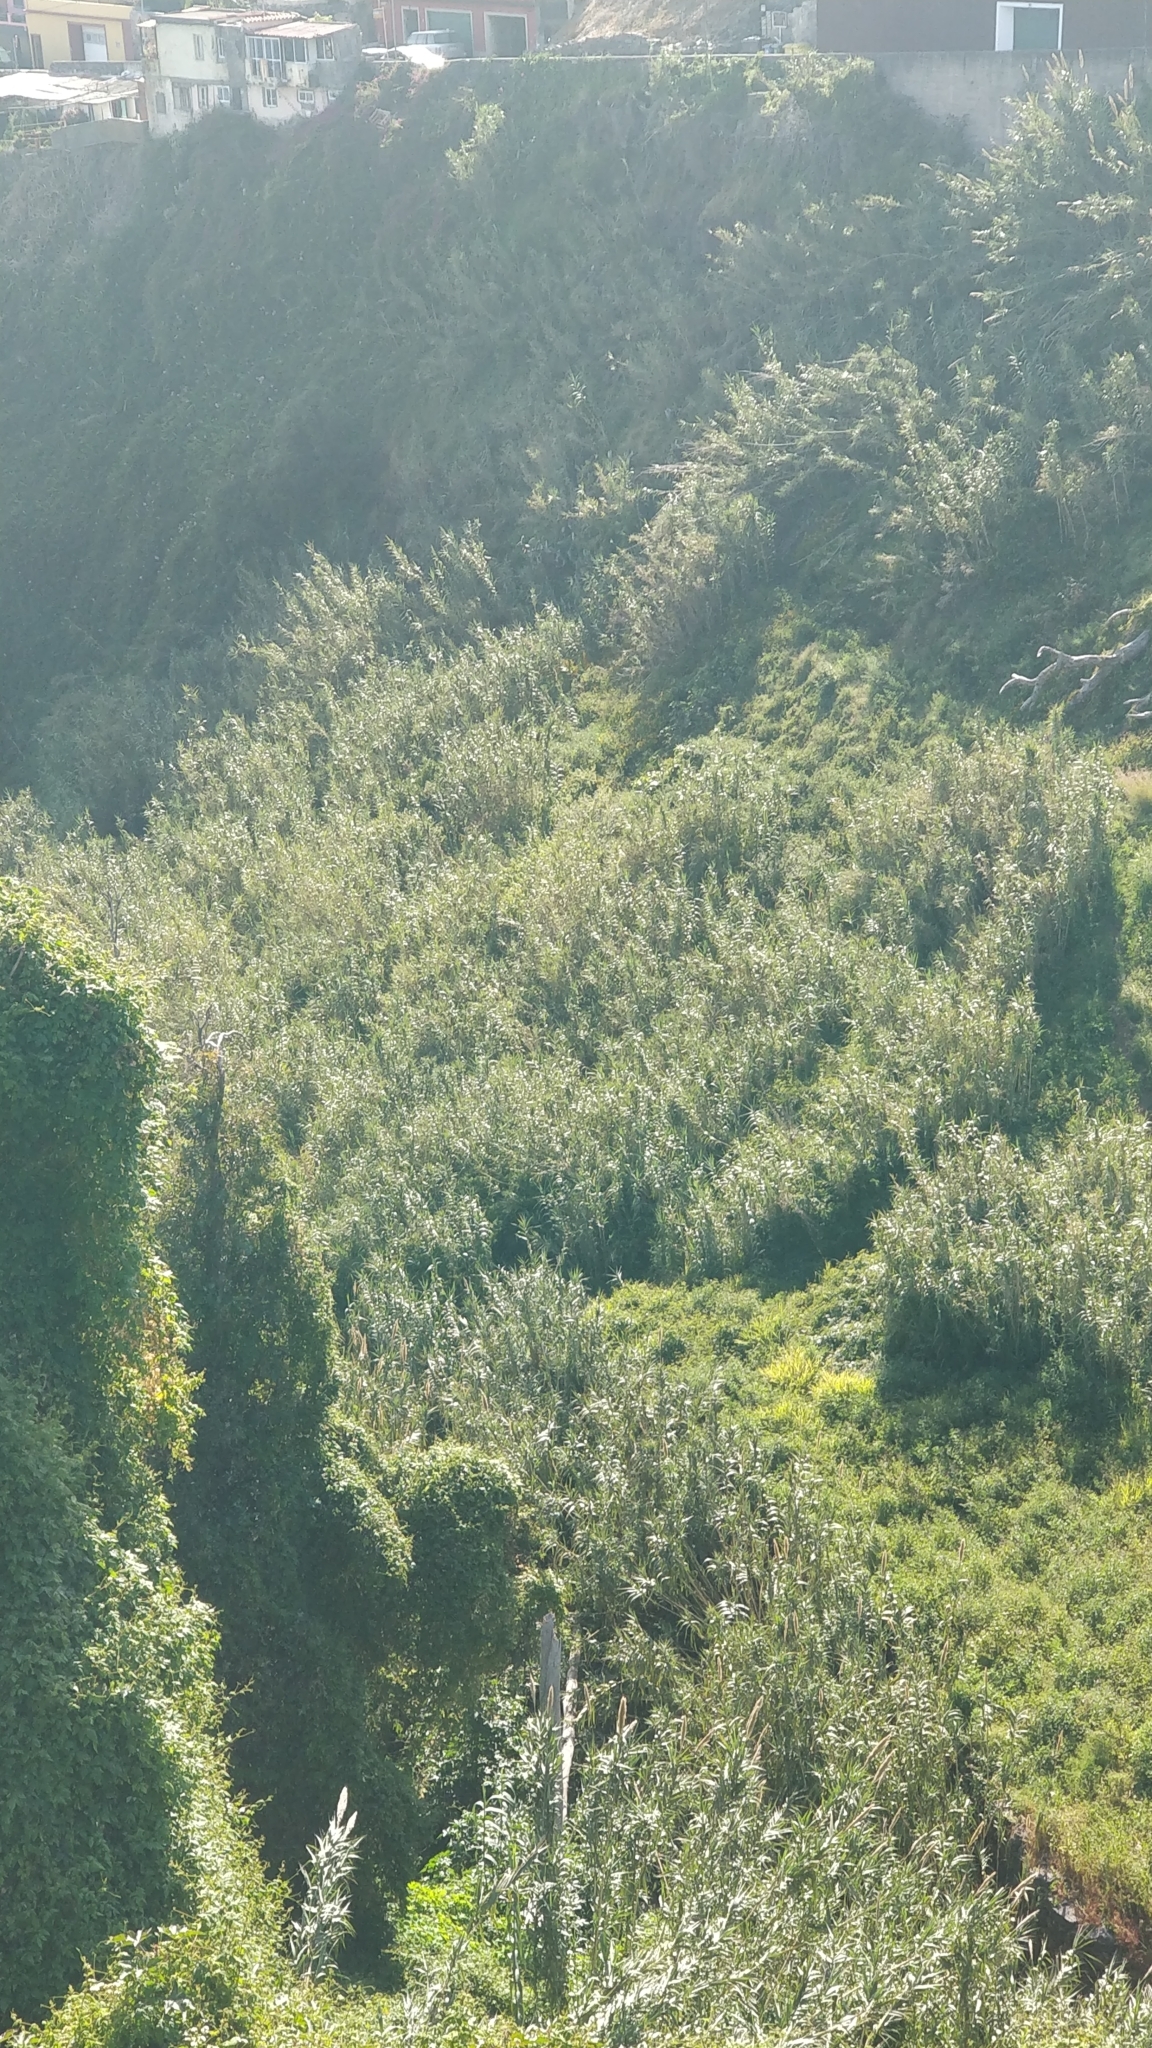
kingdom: Plantae
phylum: Tracheophyta
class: Liliopsida
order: Poales
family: Poaceae
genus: Arundo
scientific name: Arundo donax
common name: Giant reed
